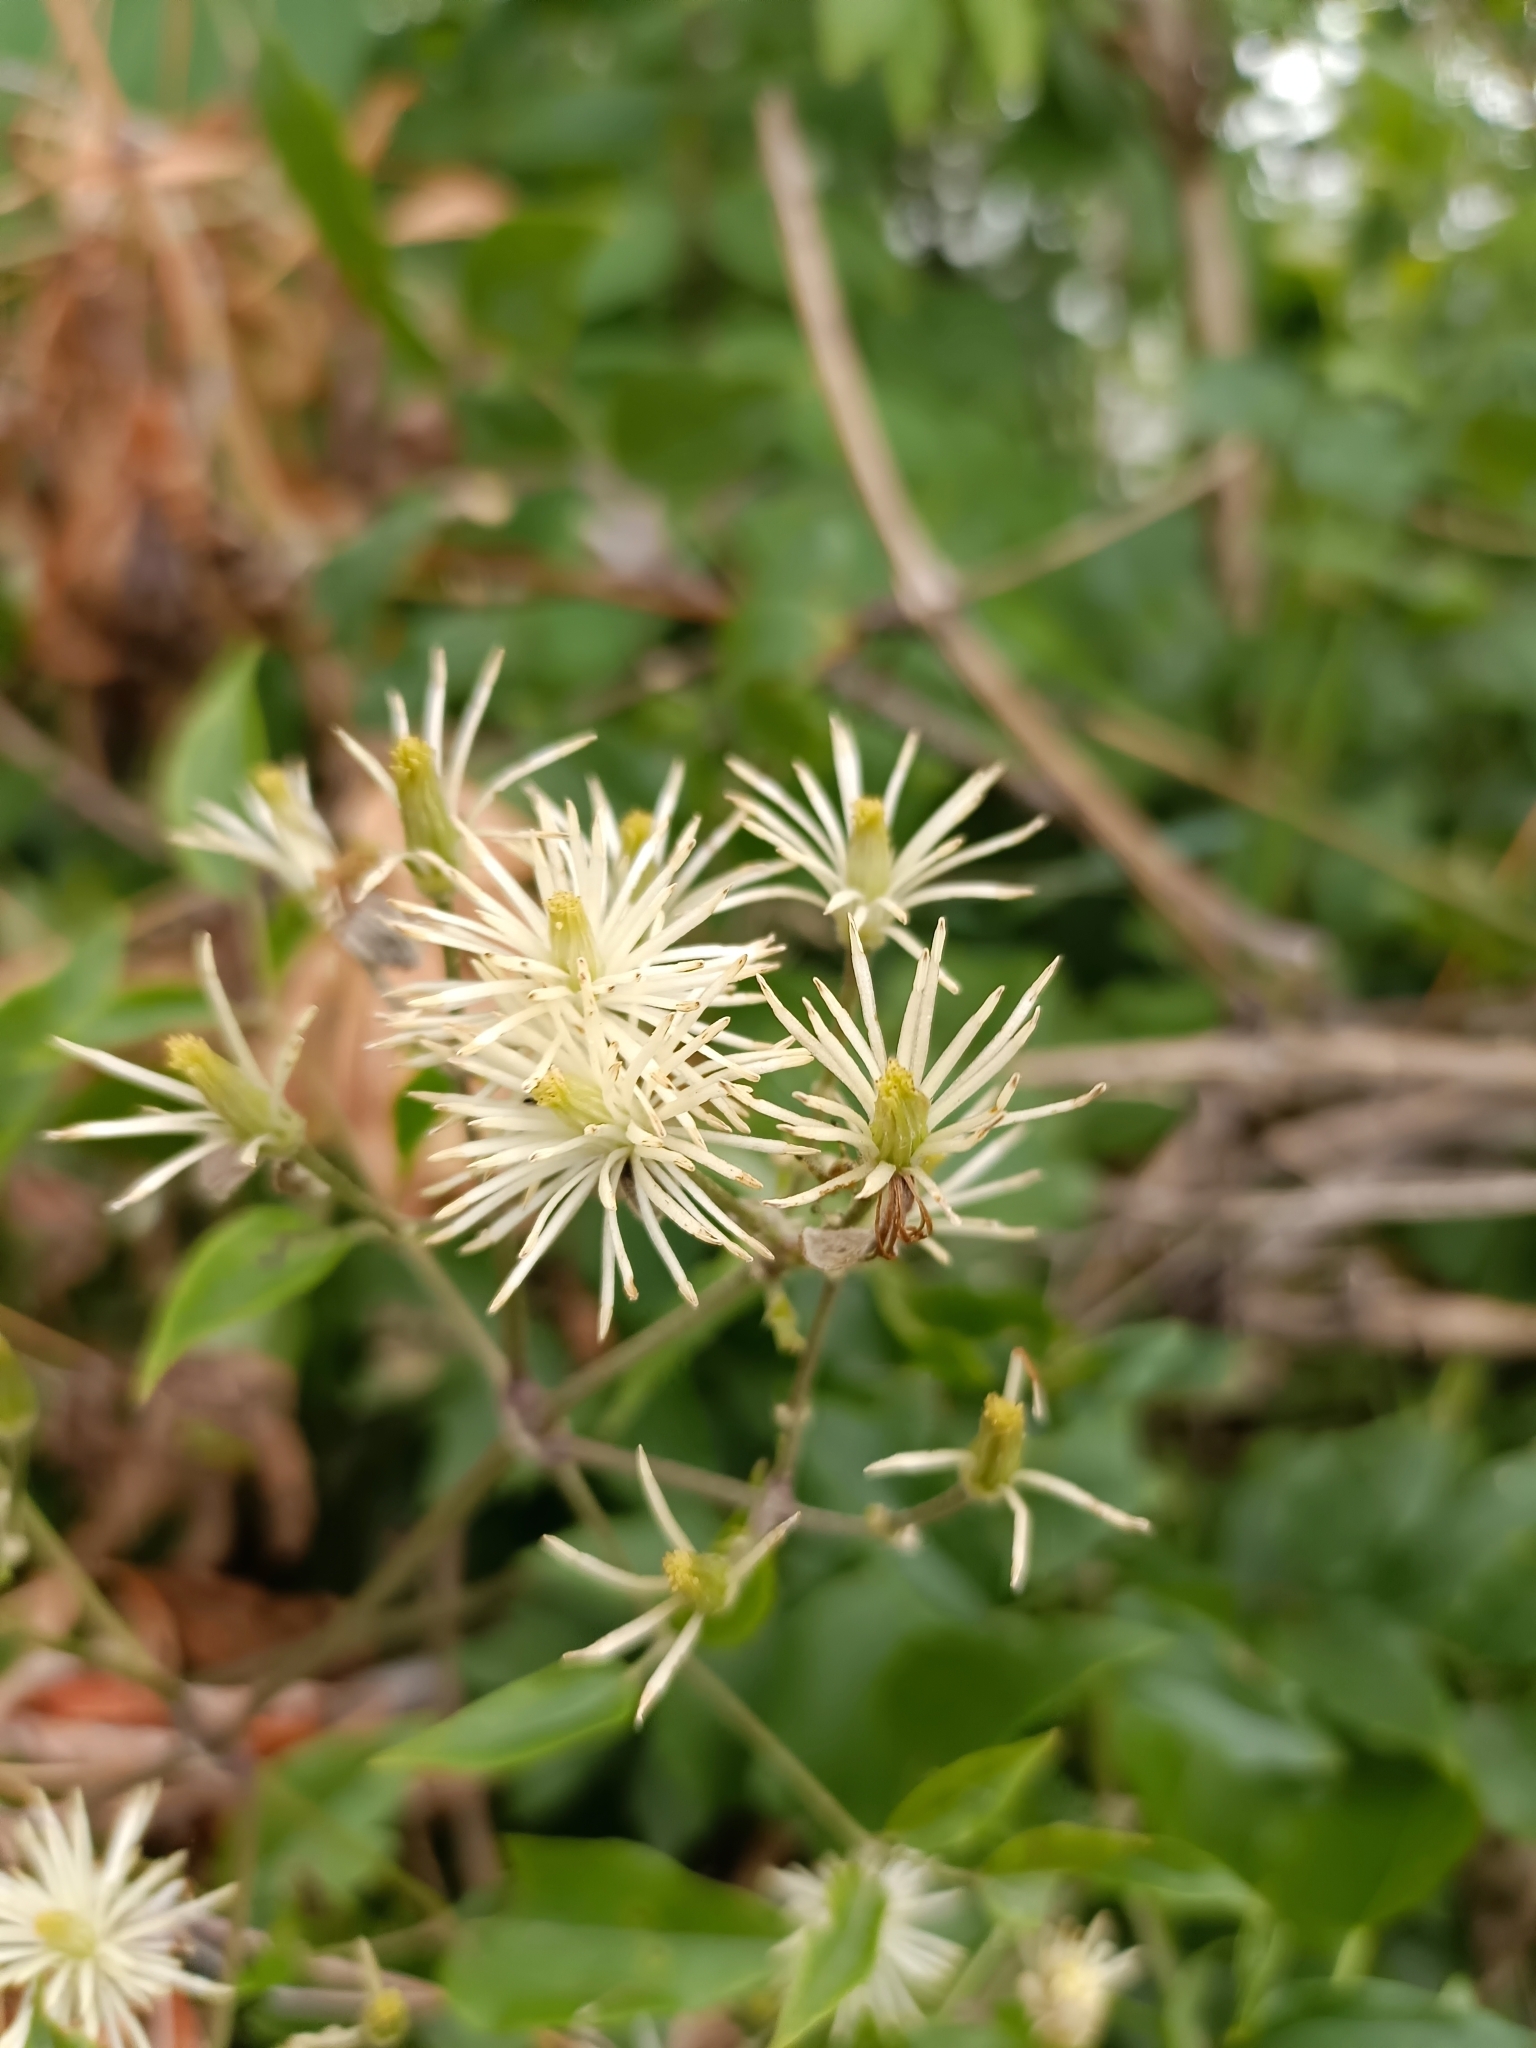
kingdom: Plantae
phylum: Tracheophyta
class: Magnoliopsida
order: Ranunculales
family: Ranunculaceae
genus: Clematis
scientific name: Clematis vitalba
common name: Evergreen clematis
